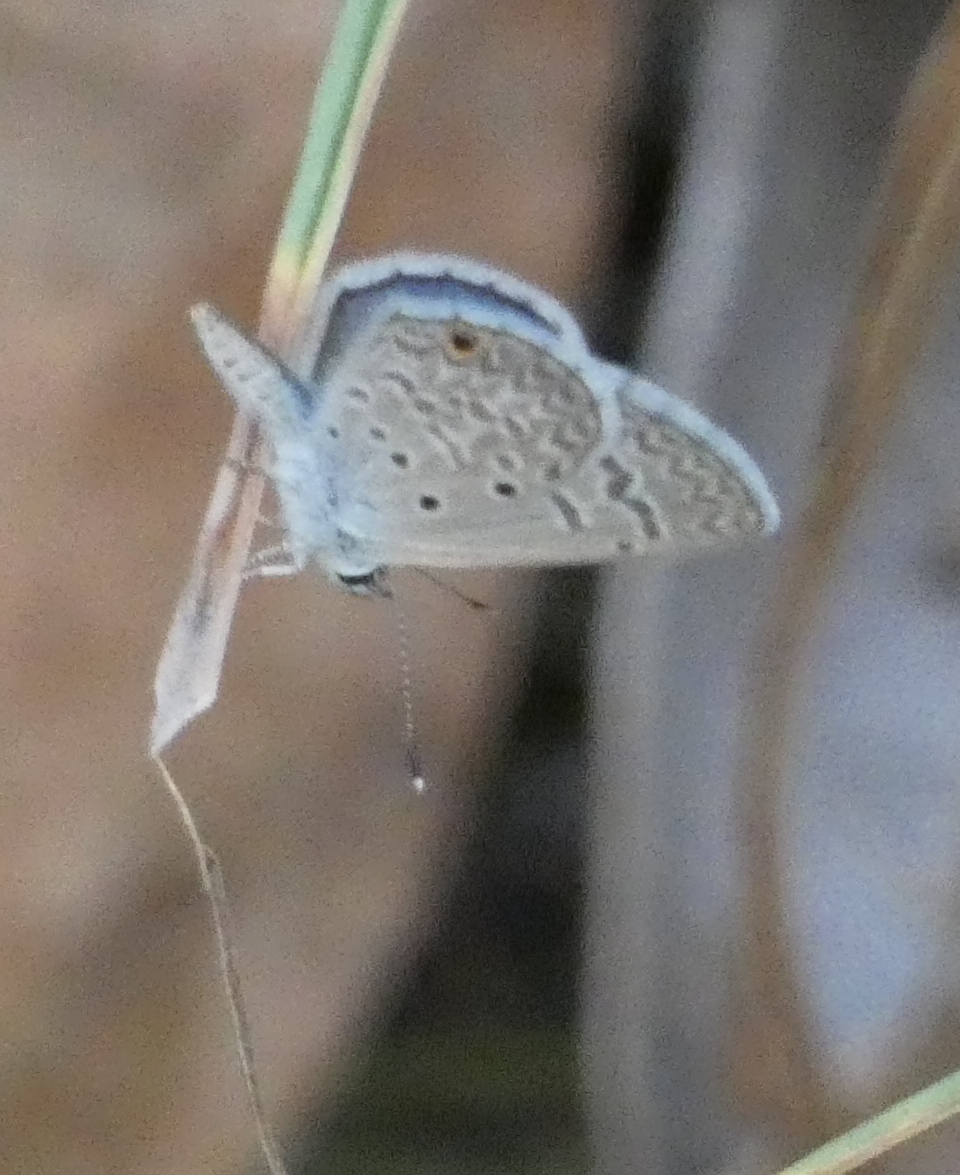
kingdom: Animalia
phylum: Arthropoda
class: Insecta
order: Lepidoptera
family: Lycaenidae
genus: Hemiargus
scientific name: Hemiargus hanno
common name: Common blue
